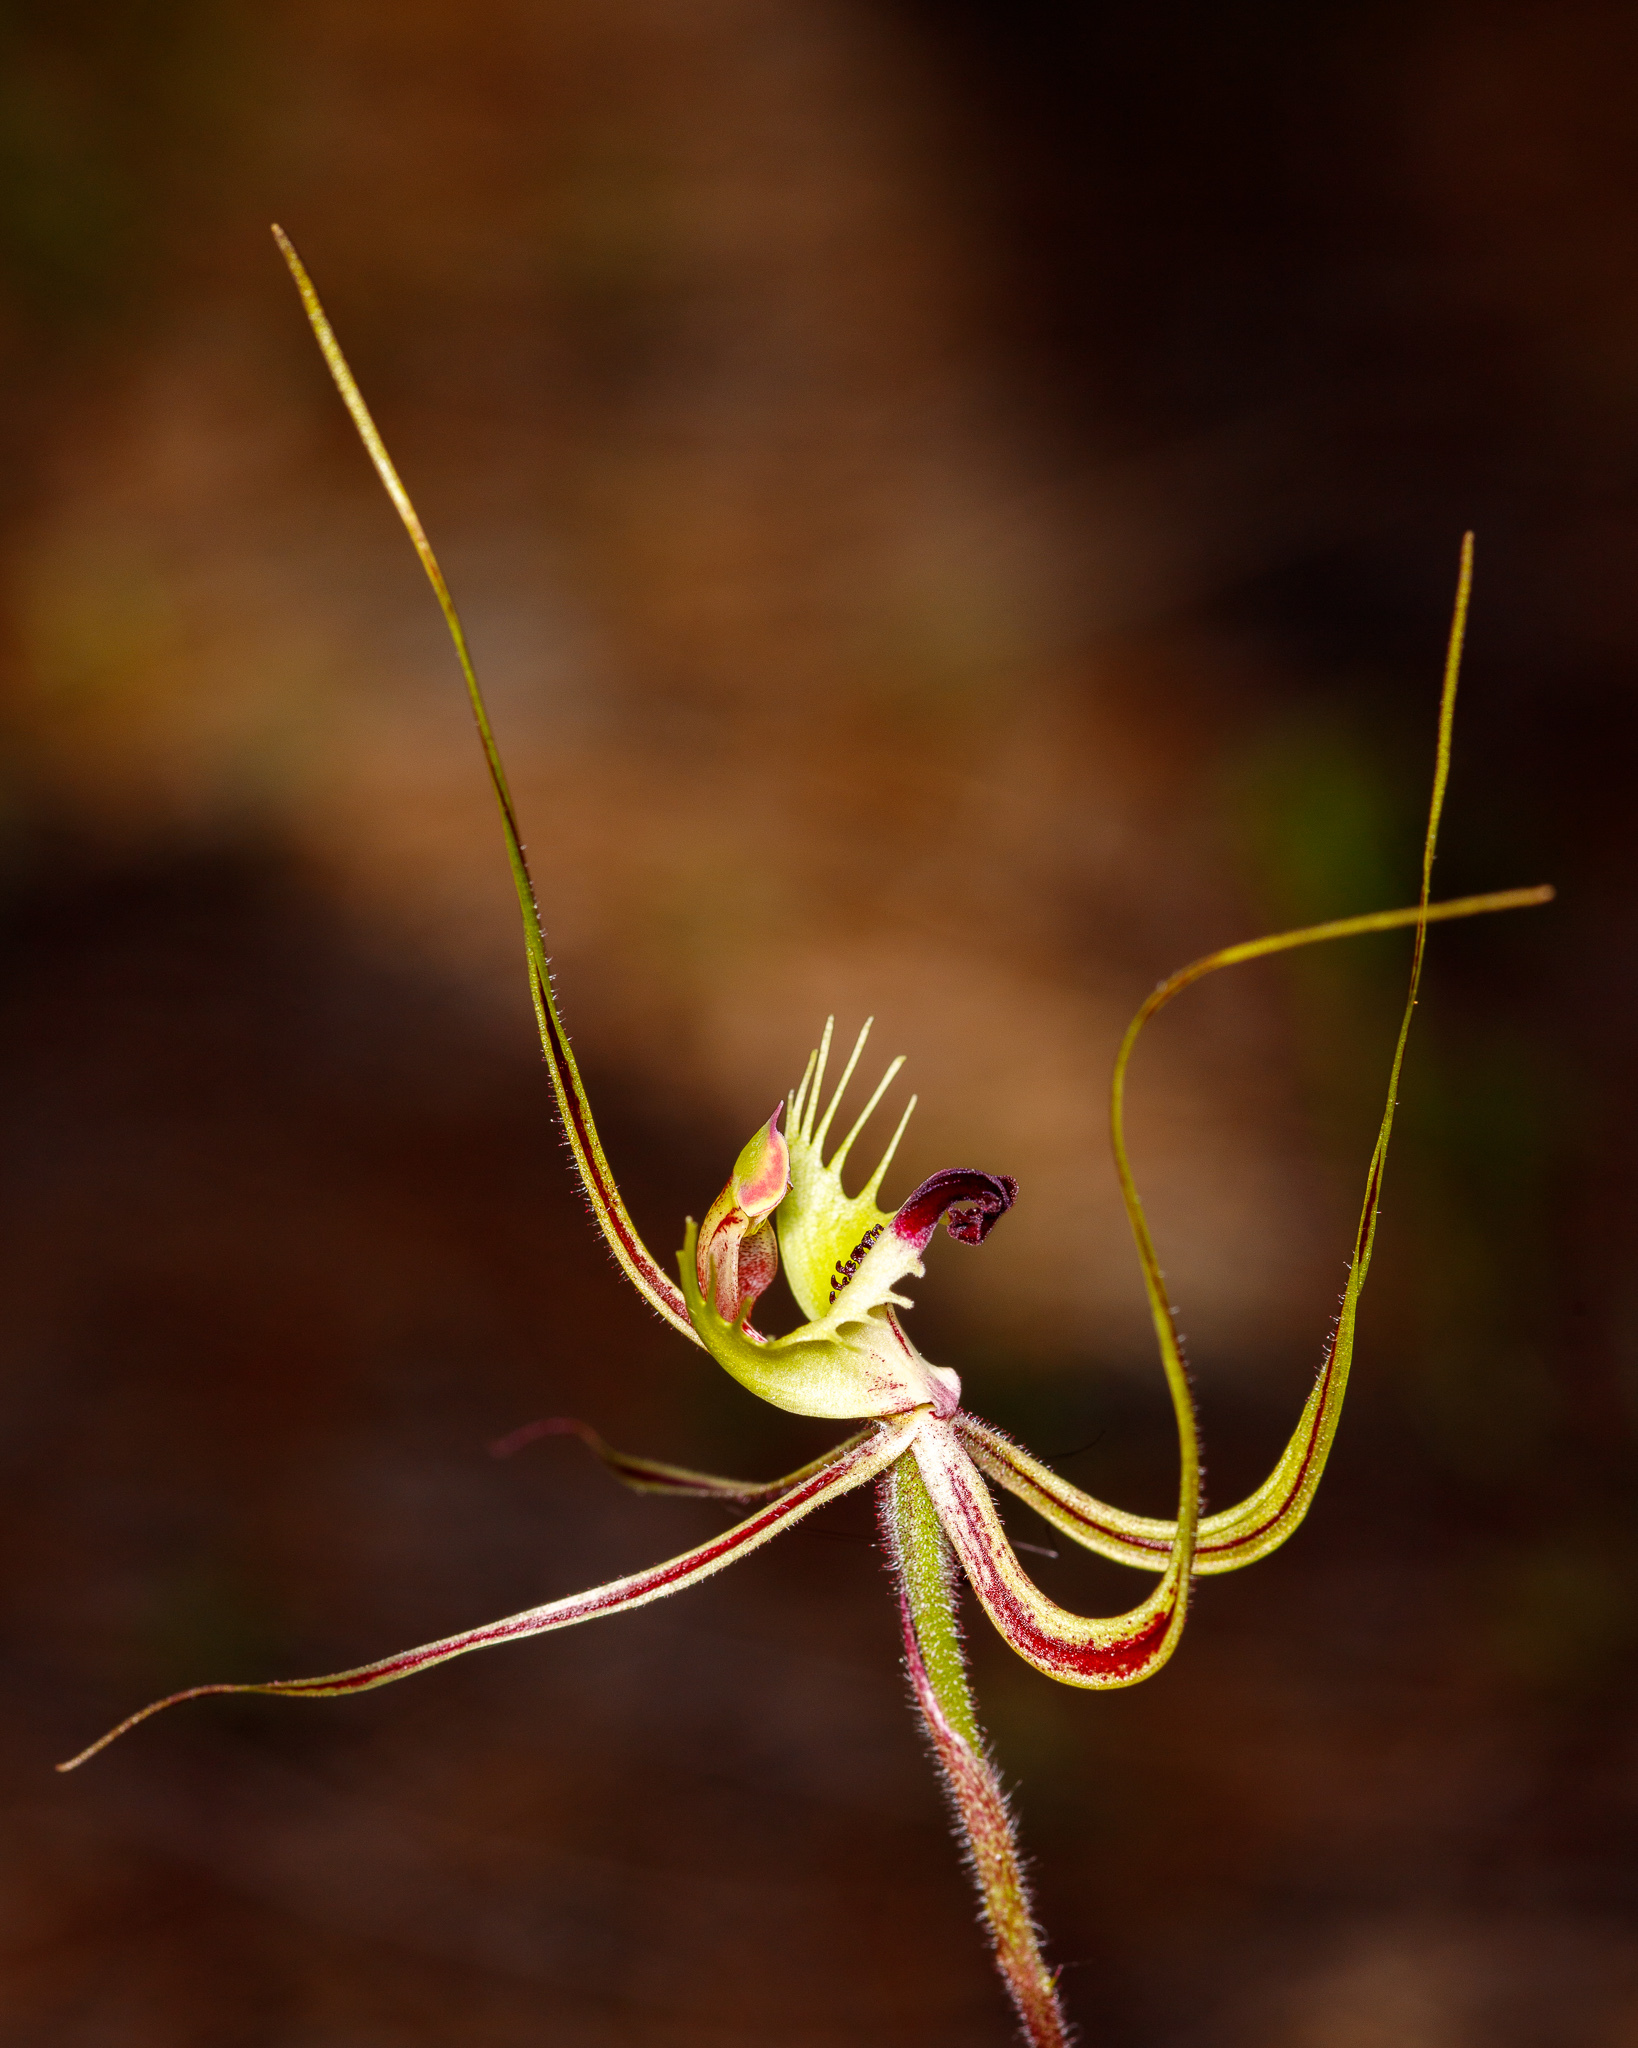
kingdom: Plantae
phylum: Tracheophyta
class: Liliopsida
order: Asparagales
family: Orchidaceae
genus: Caladenia
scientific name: Caladenia falcata
